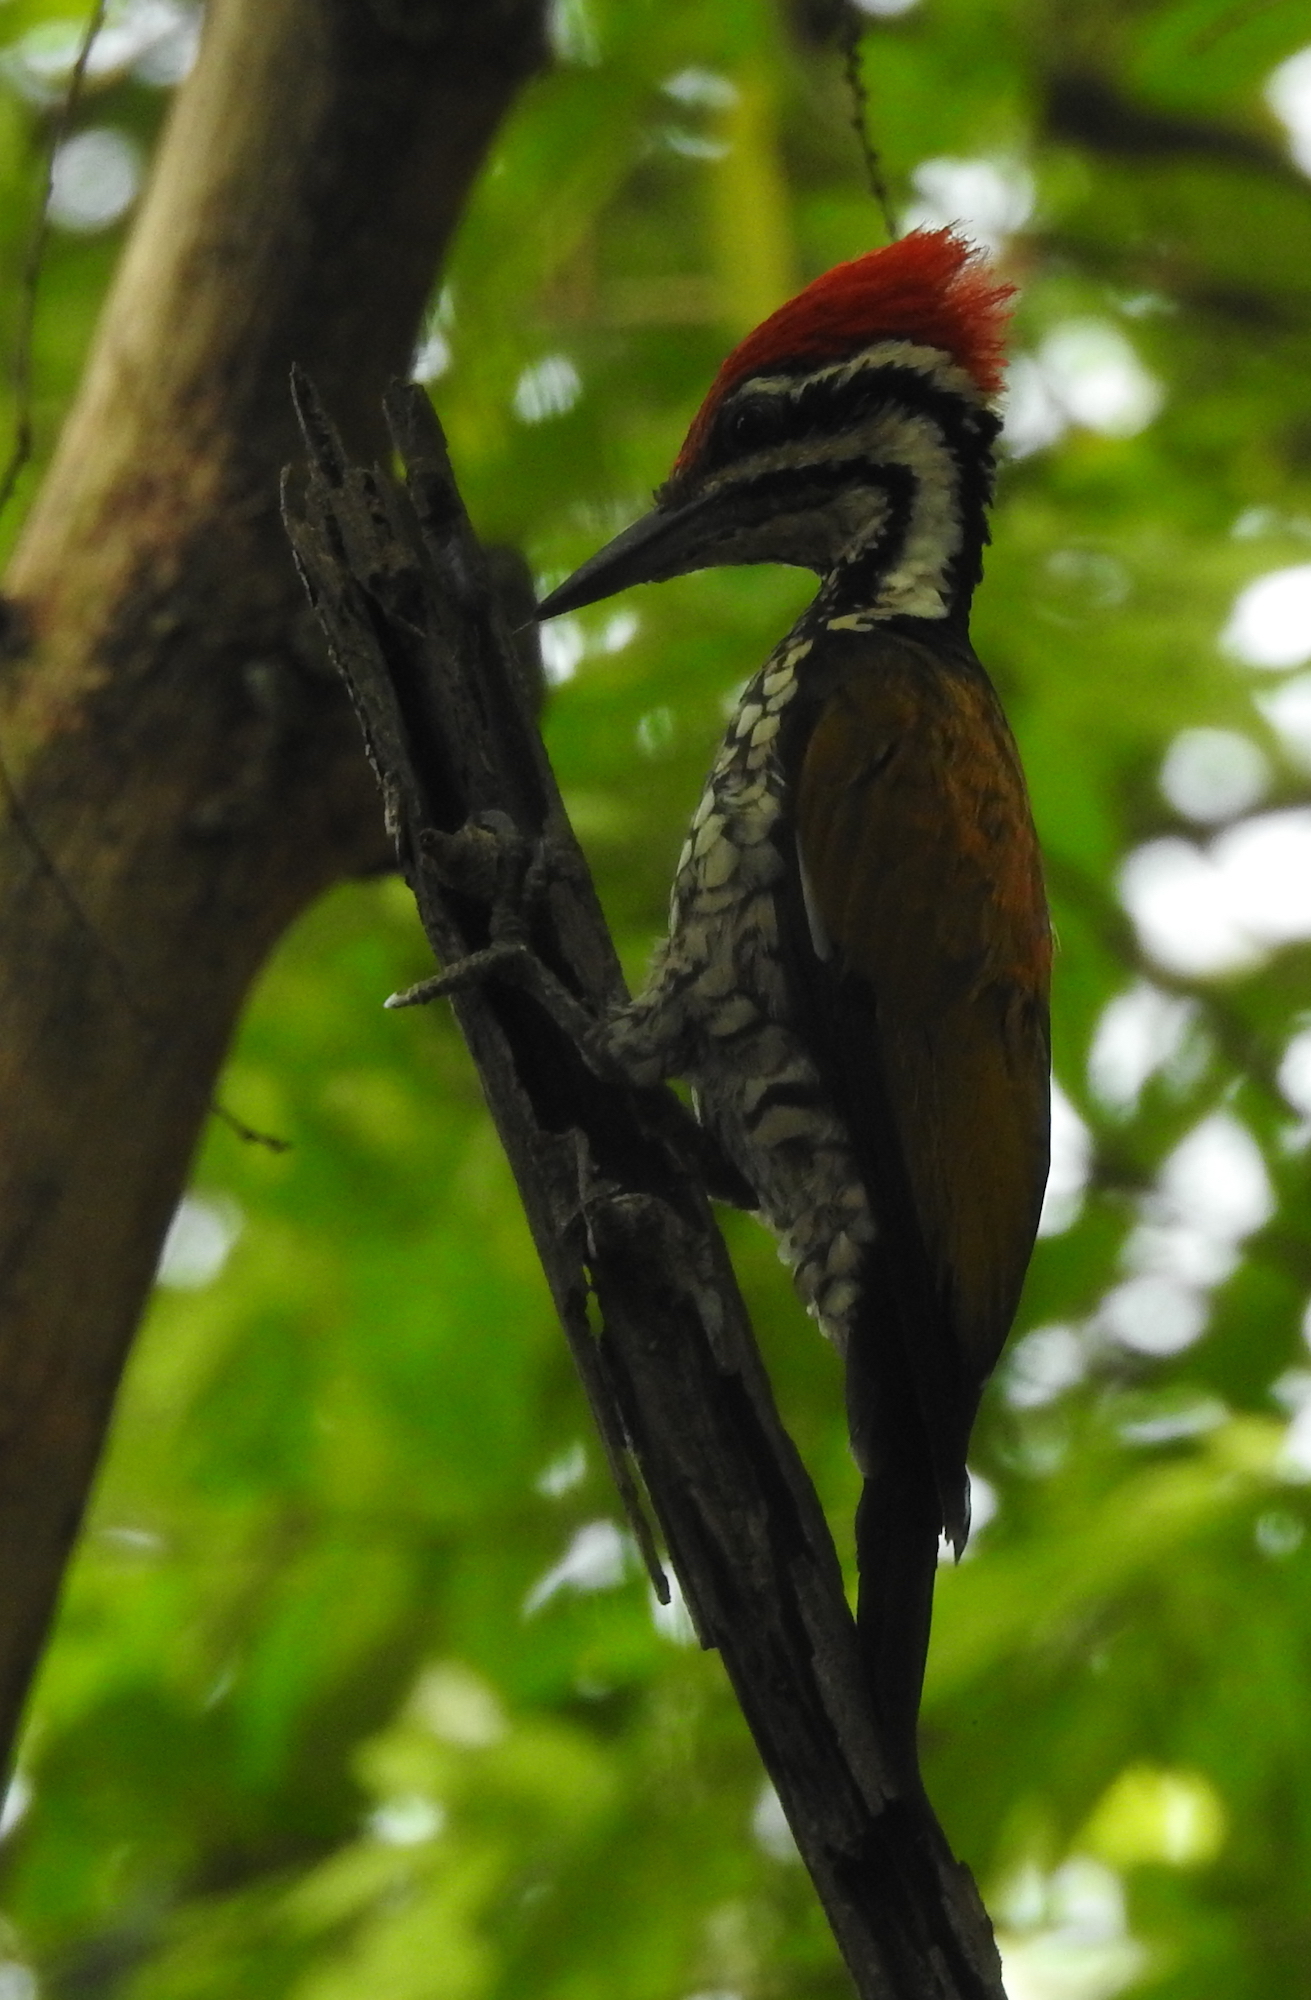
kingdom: Animalia
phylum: Chordata
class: Aves
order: Piciformes
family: Picidae
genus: Dinopium
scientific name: Dinopium javanense
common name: Common flameback
